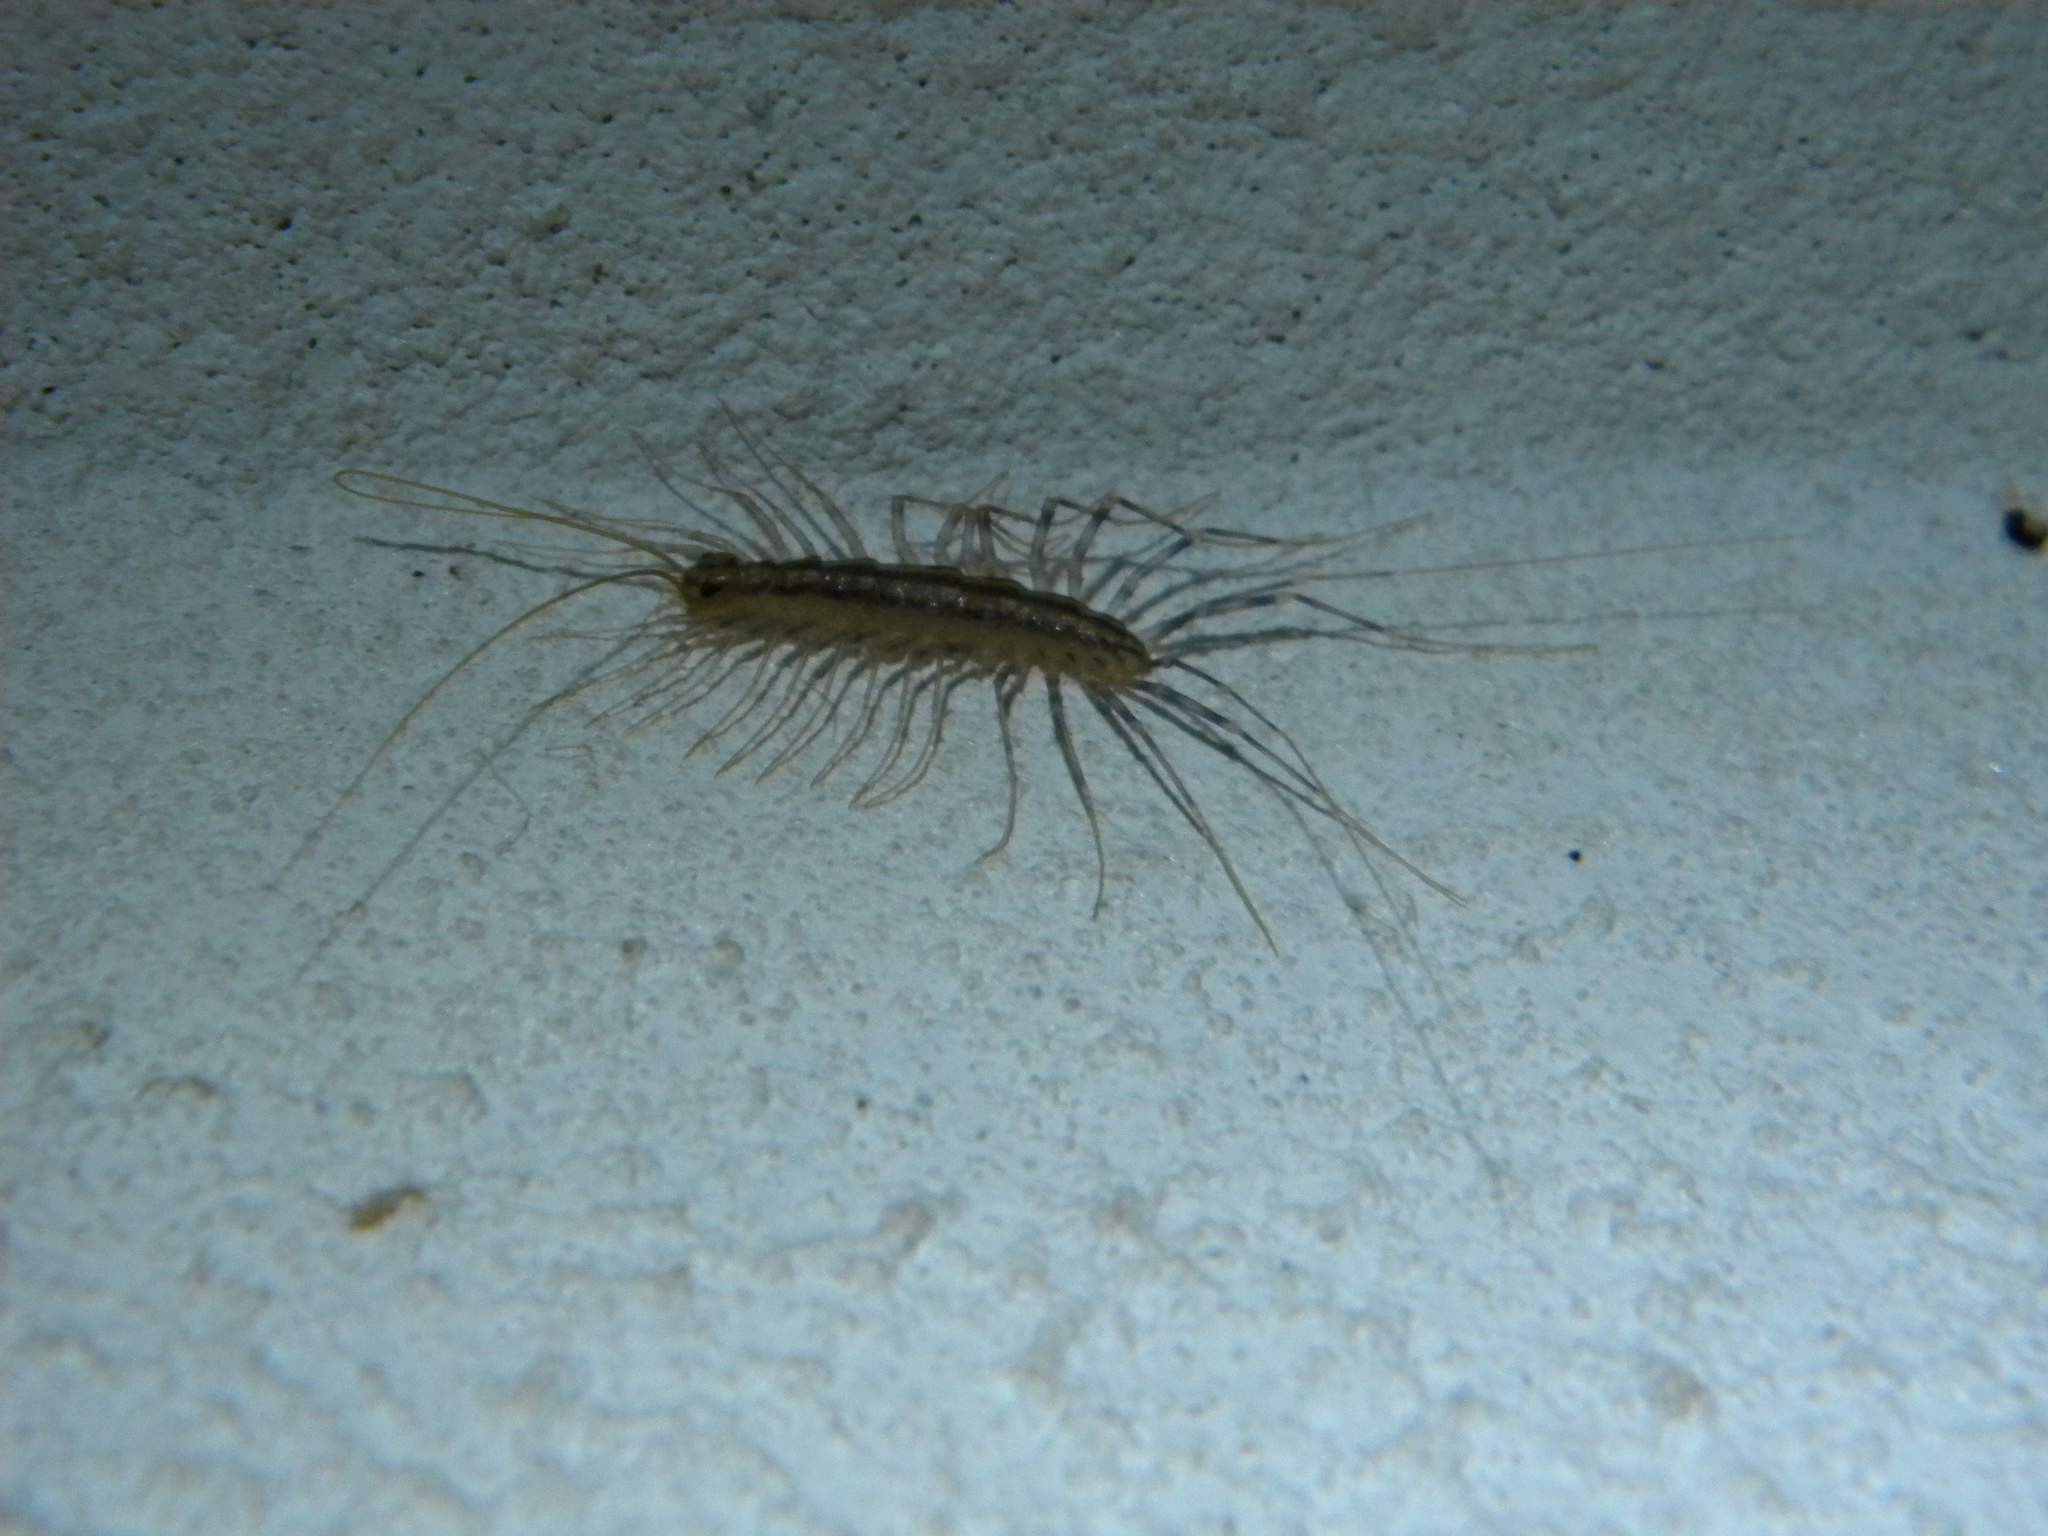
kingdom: Animalia
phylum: Arthropoda
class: Chilopoda
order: Scutigeromorpha
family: Scutigeridae
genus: Scutigera
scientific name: Scutigera coleoptrata
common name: House centipede
